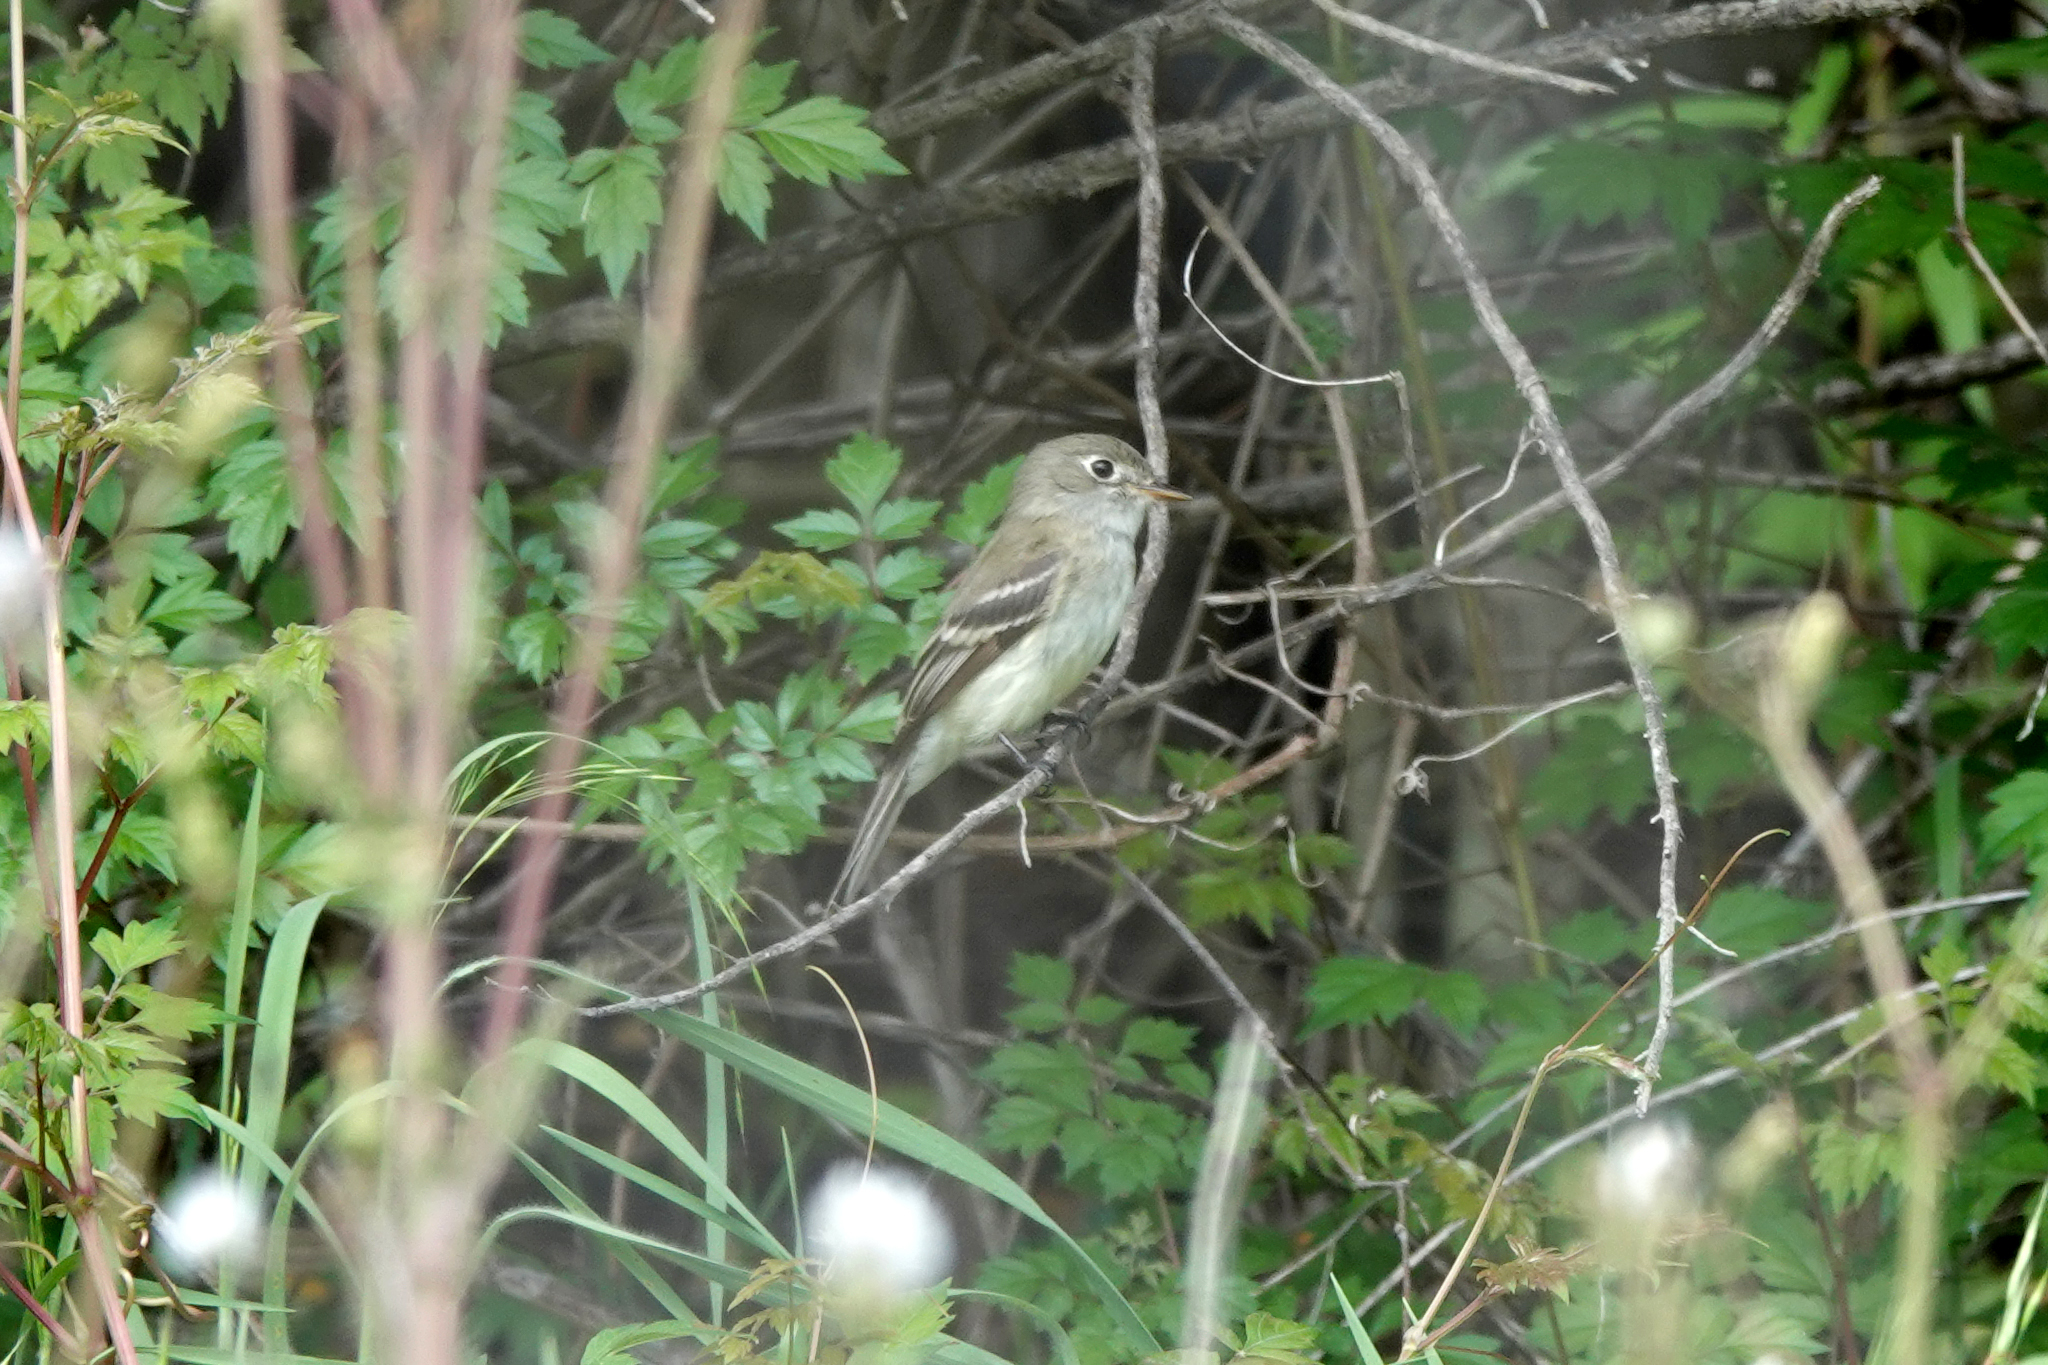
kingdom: Animalia
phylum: Chordata
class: Aves
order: Passeriformes
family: Tyrannidae
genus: Empidonax
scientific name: Empidonax minimus
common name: Least flycatcher
